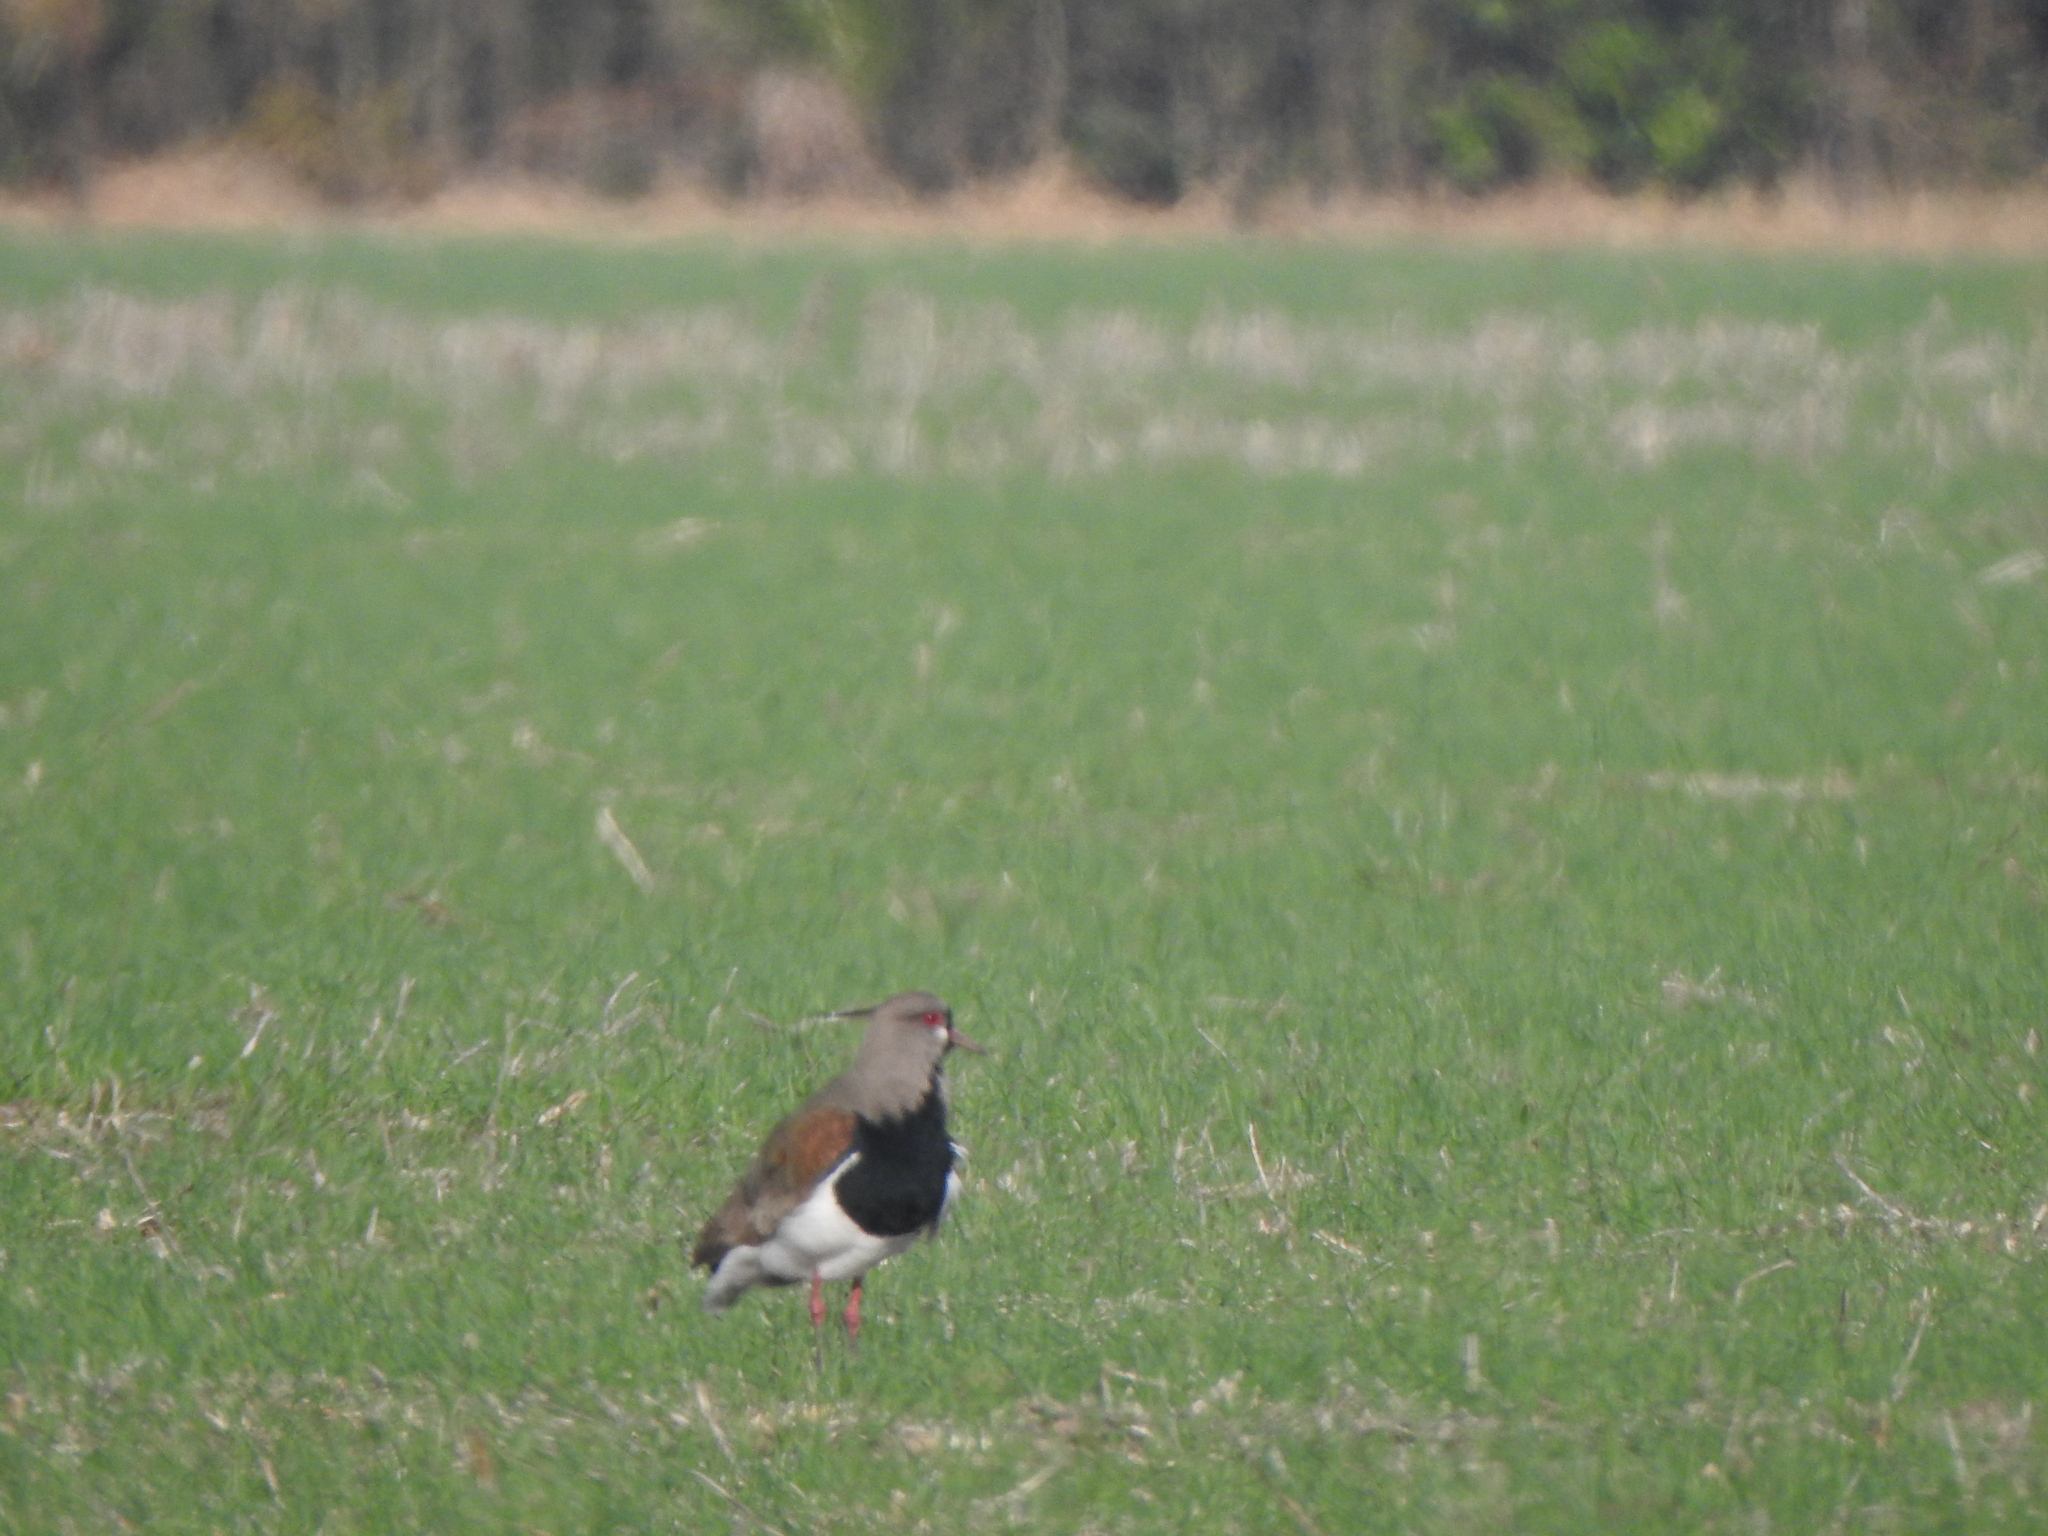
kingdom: Animalia
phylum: Chordata
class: Aves
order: Charadriiformes
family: Charadriidae
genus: Vanellus
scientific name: Vanellus chilensis
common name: Southern lapwing
